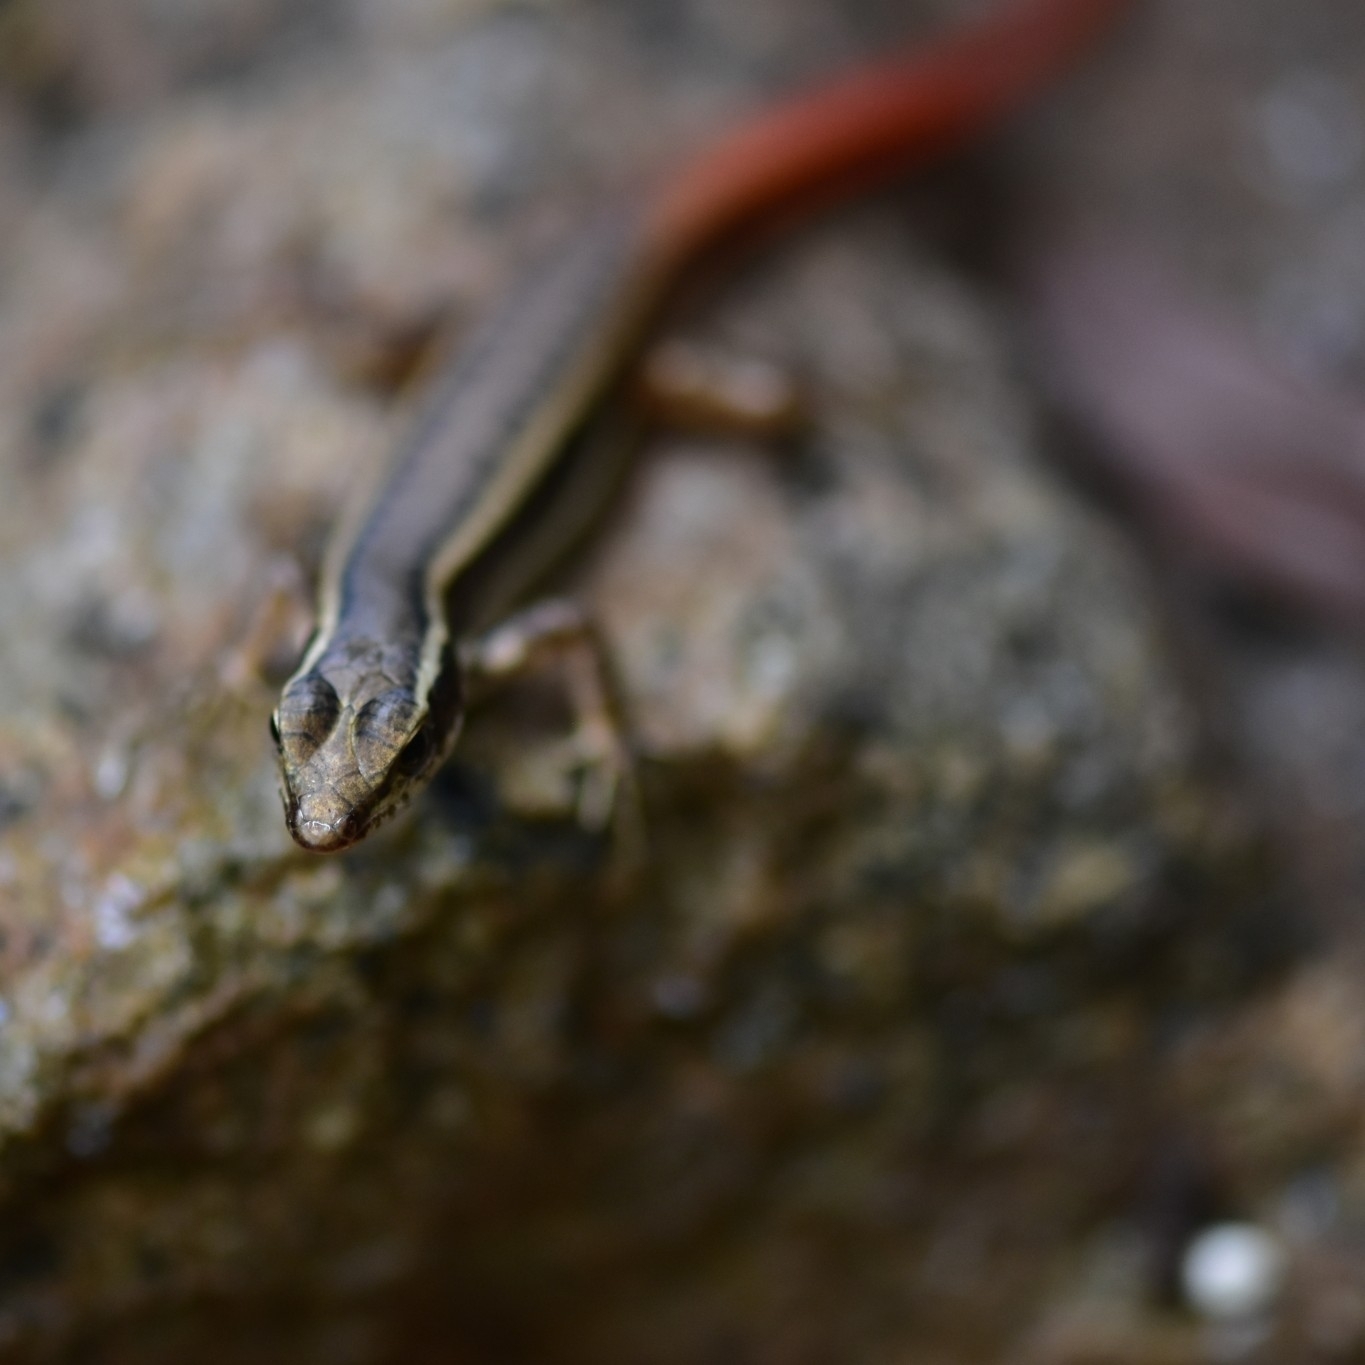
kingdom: Animalia
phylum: Chordata
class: Squamata
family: Scincidae
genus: Sphenomorphus
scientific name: Sphenomorphus dussumieri
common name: Dussumier's forest skink
